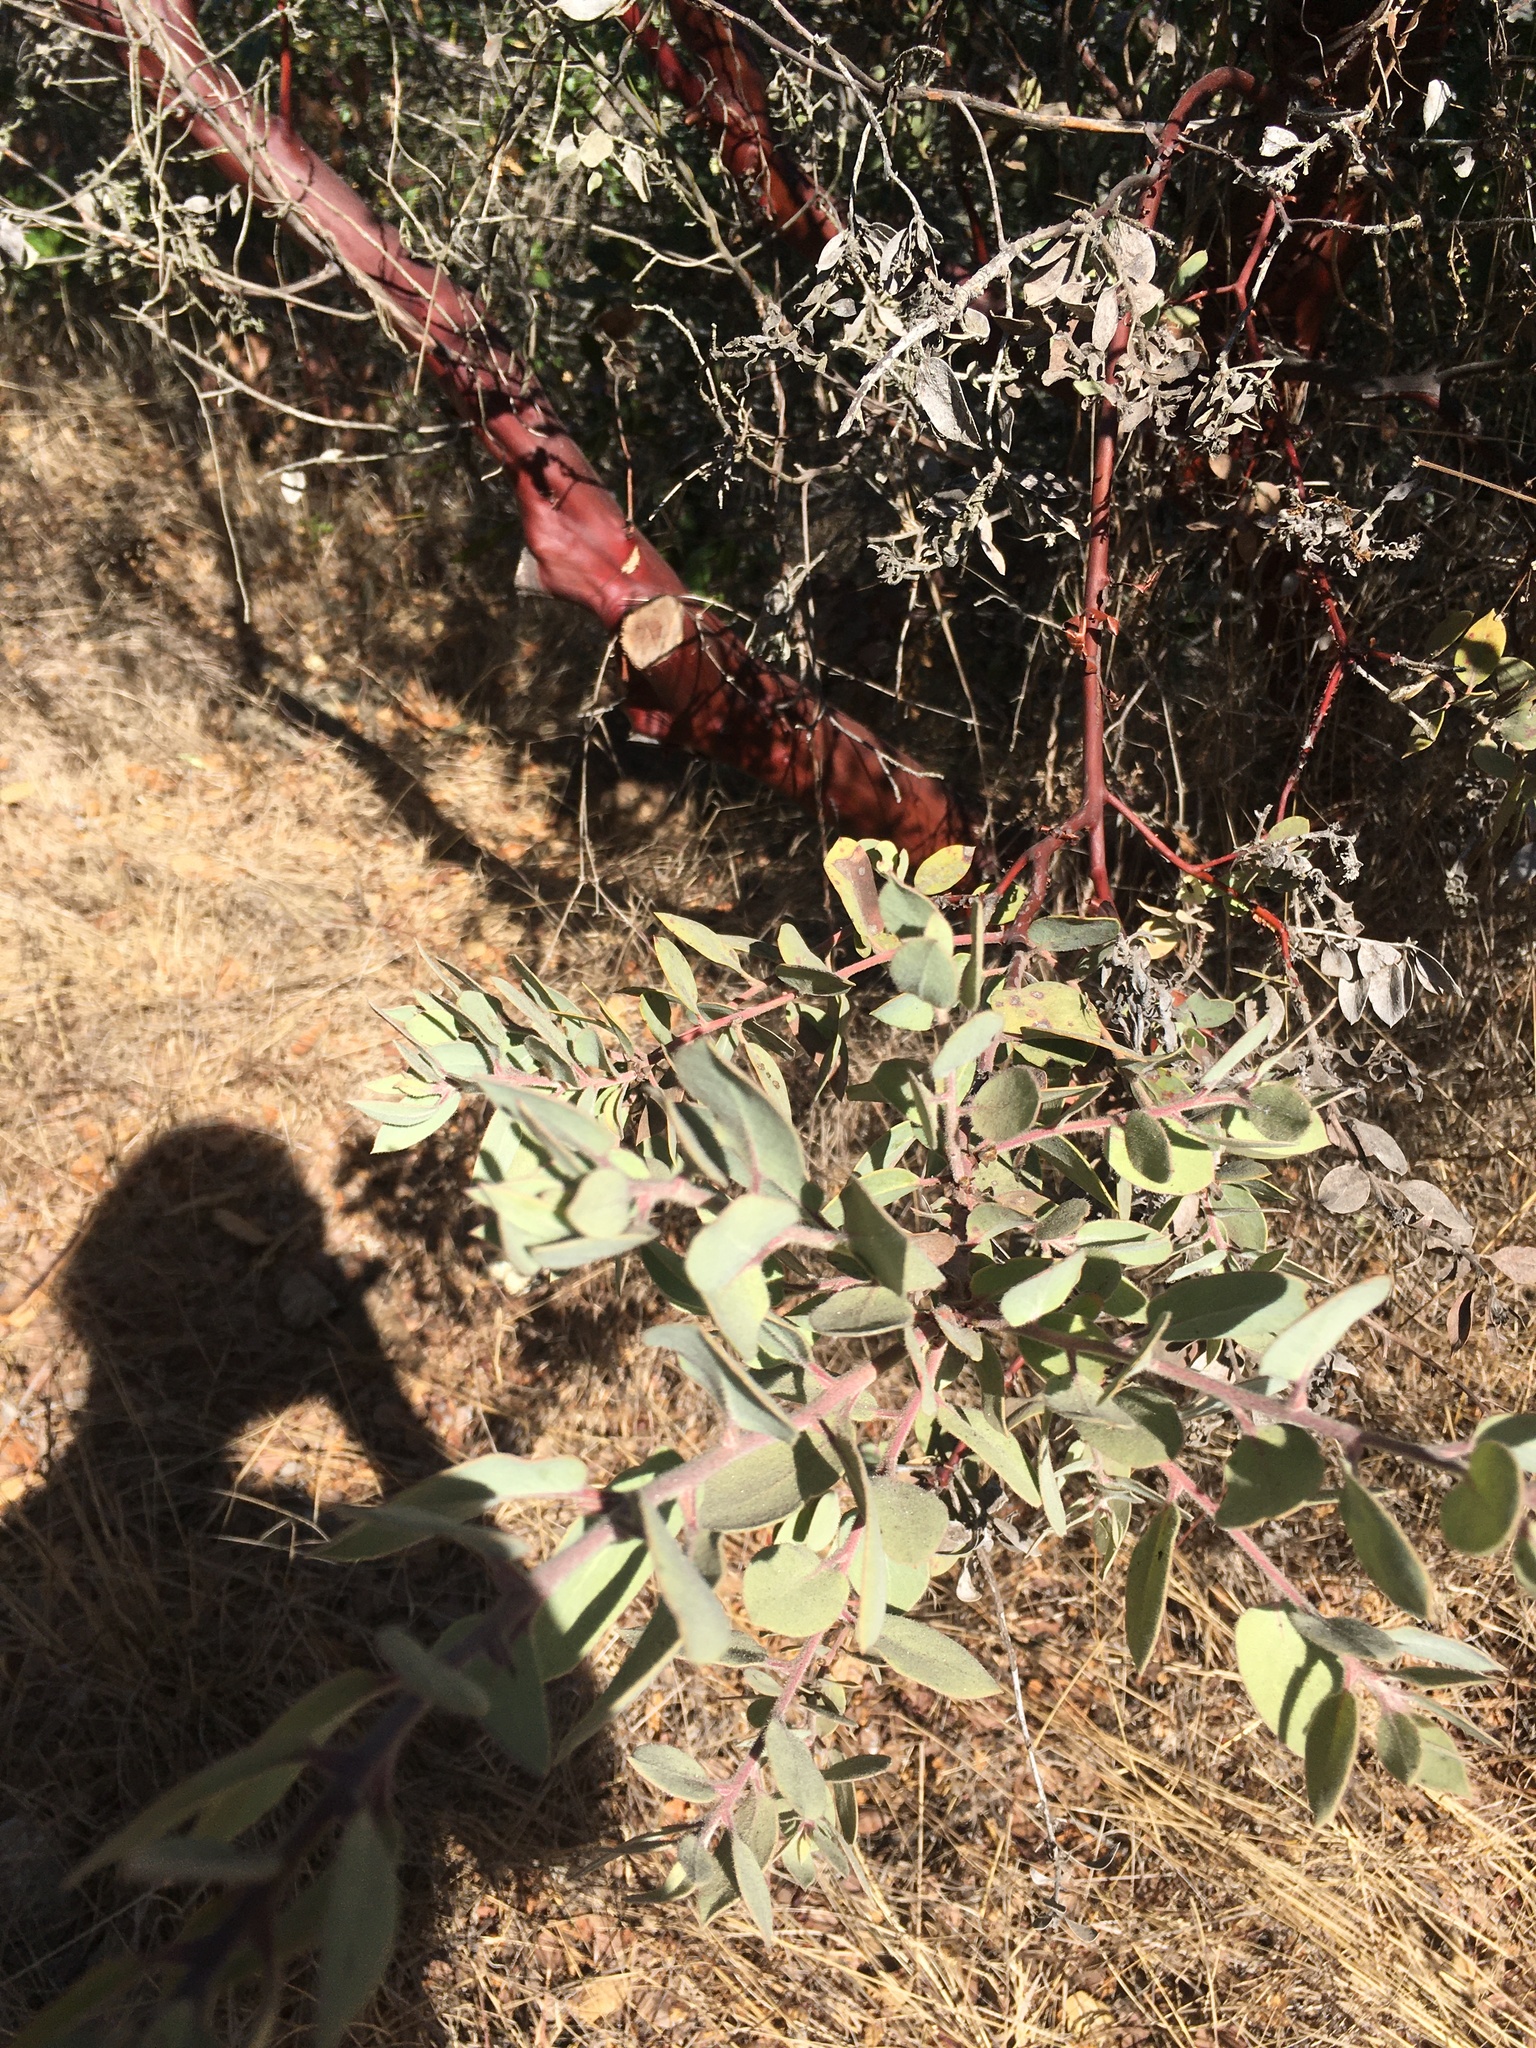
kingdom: Plantae
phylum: Tracheophyta
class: Magnoliopsida
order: Ericales
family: Ericaceae
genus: Arctostaphylos
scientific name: Arctostaphylos obispoensis
